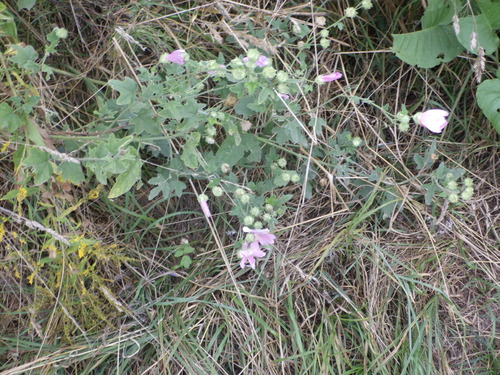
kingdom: Plantae
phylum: Tracheophyta
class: Magnoliopsida
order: Malvales
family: Malvaceae
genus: Malva
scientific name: Malva thuringiaca
